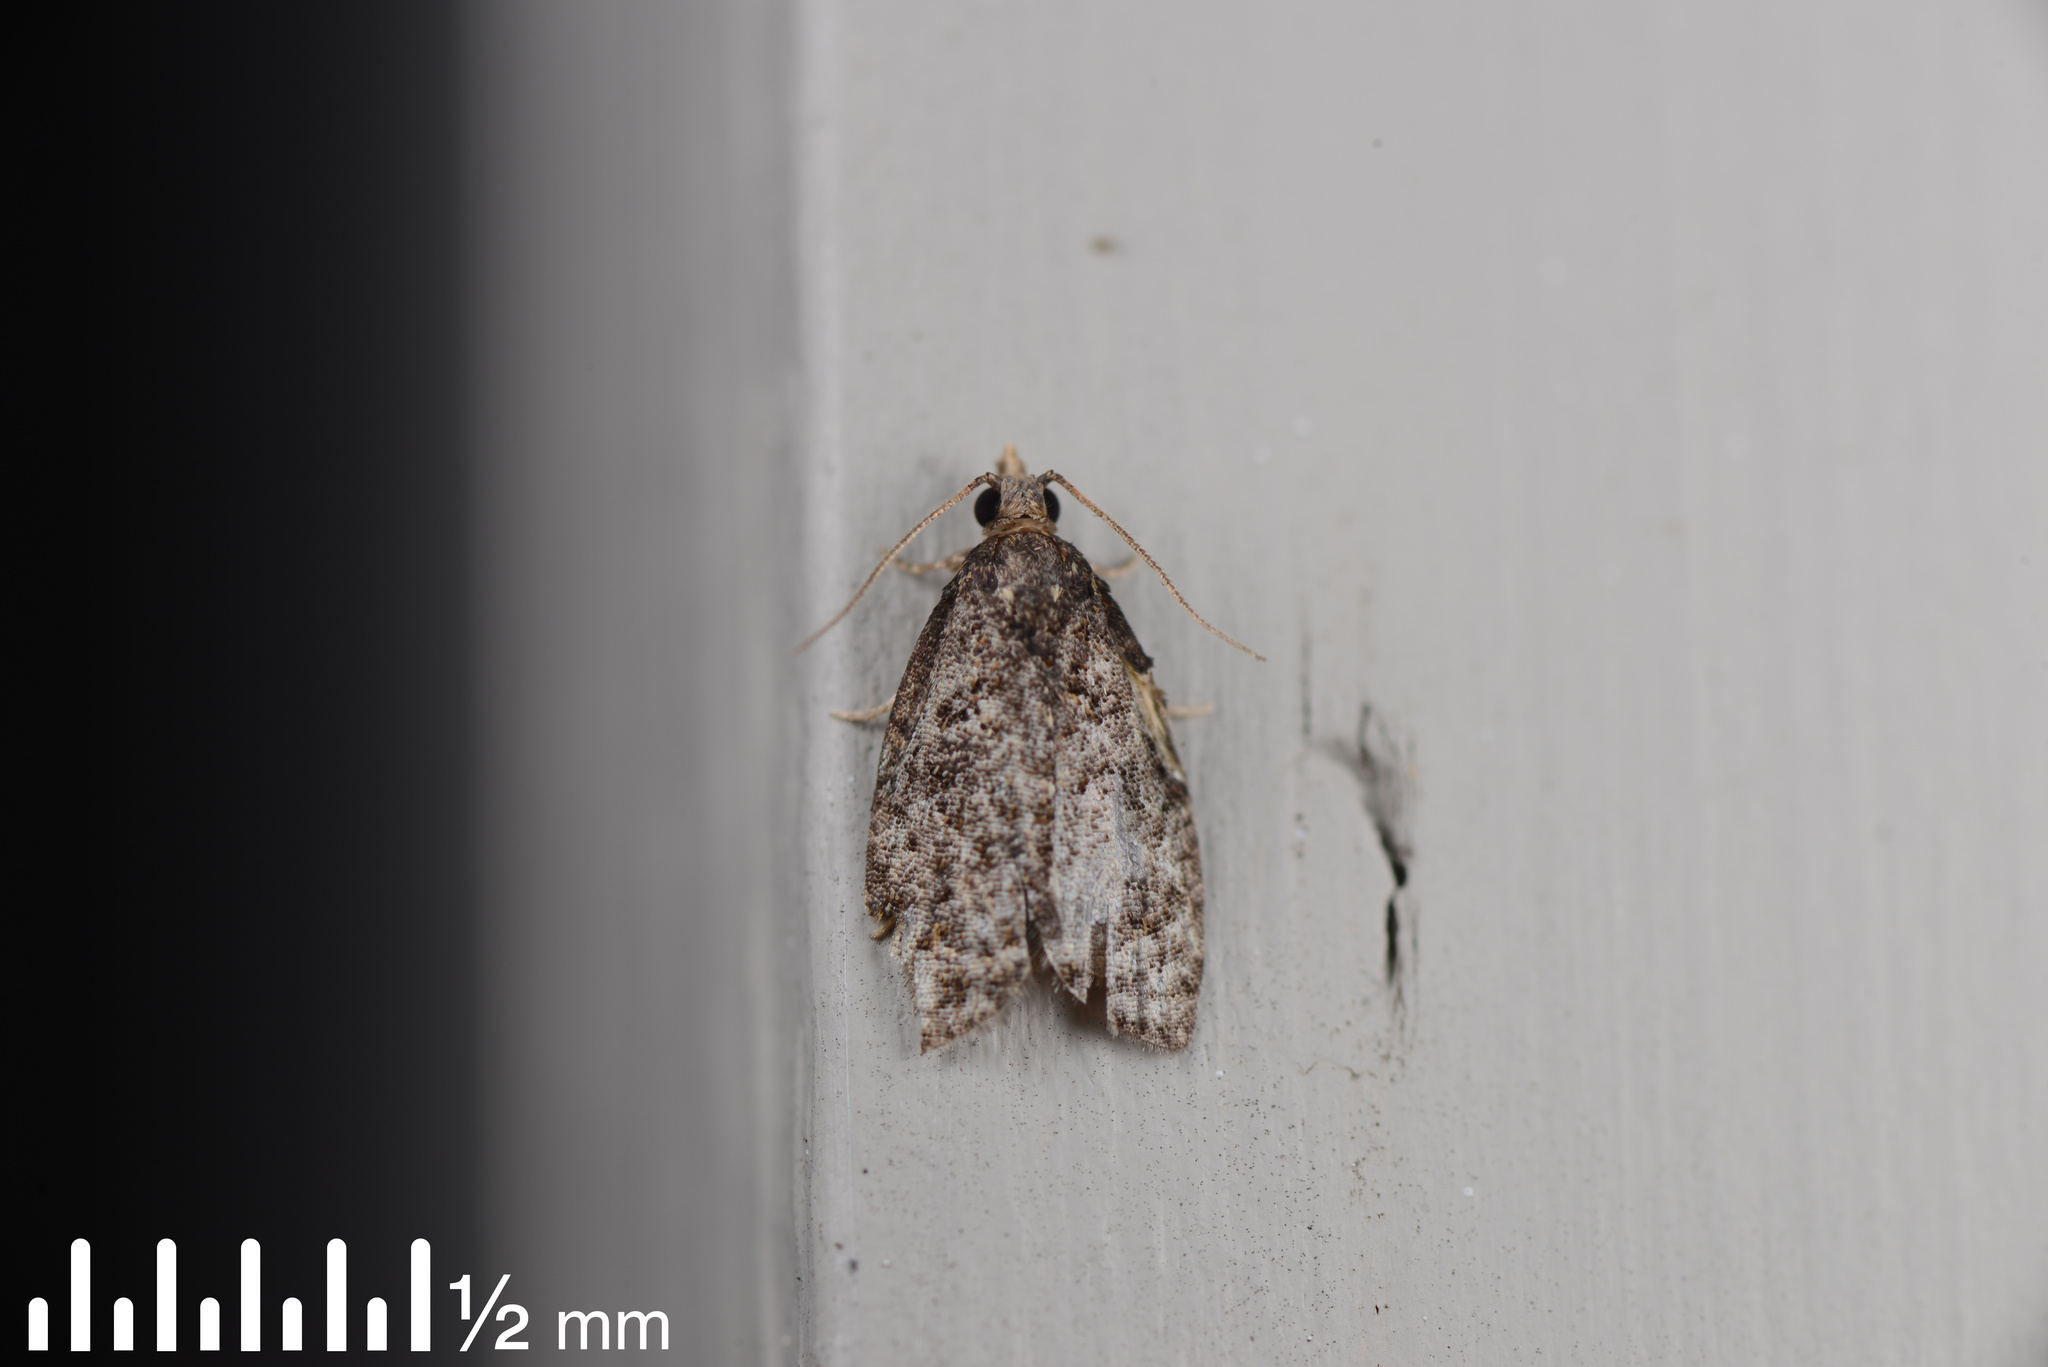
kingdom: Animalia
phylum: Arthropoda
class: Insecta
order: Lepidoptera
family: Tortricidae
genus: Capua
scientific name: Capua intractana
